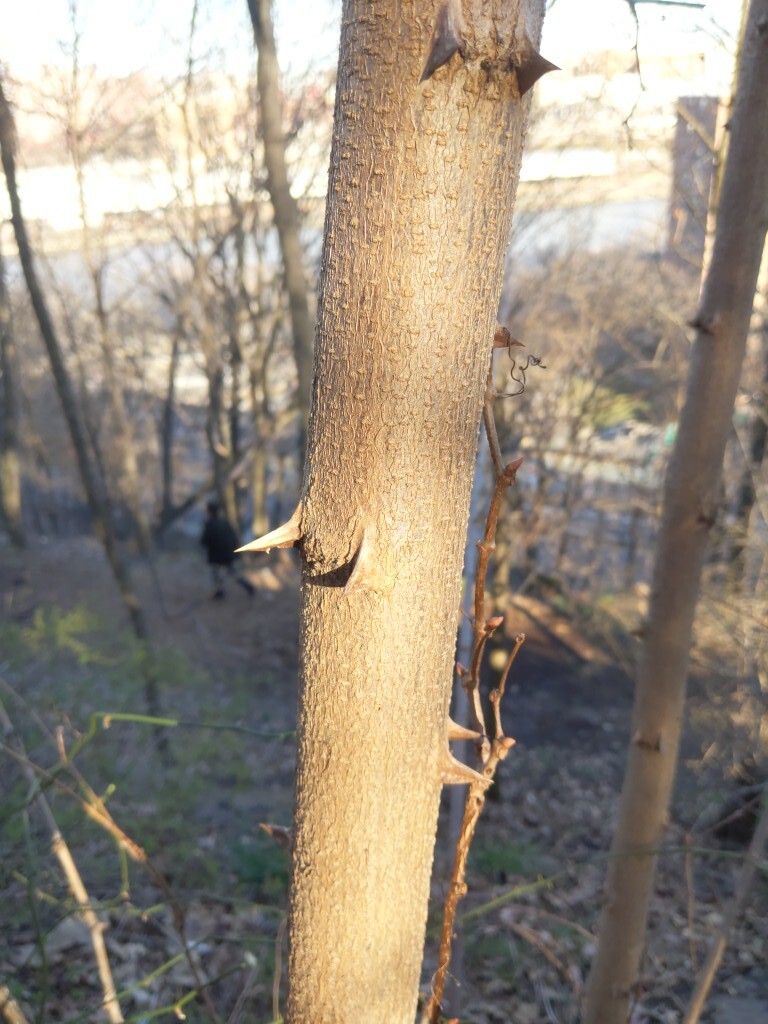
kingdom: Plantae
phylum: Tracheophyta
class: Magnoliopsida
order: Fabales
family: Fabaceae
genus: Robinia
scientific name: Robinia pseudoacacia
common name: Black locust
